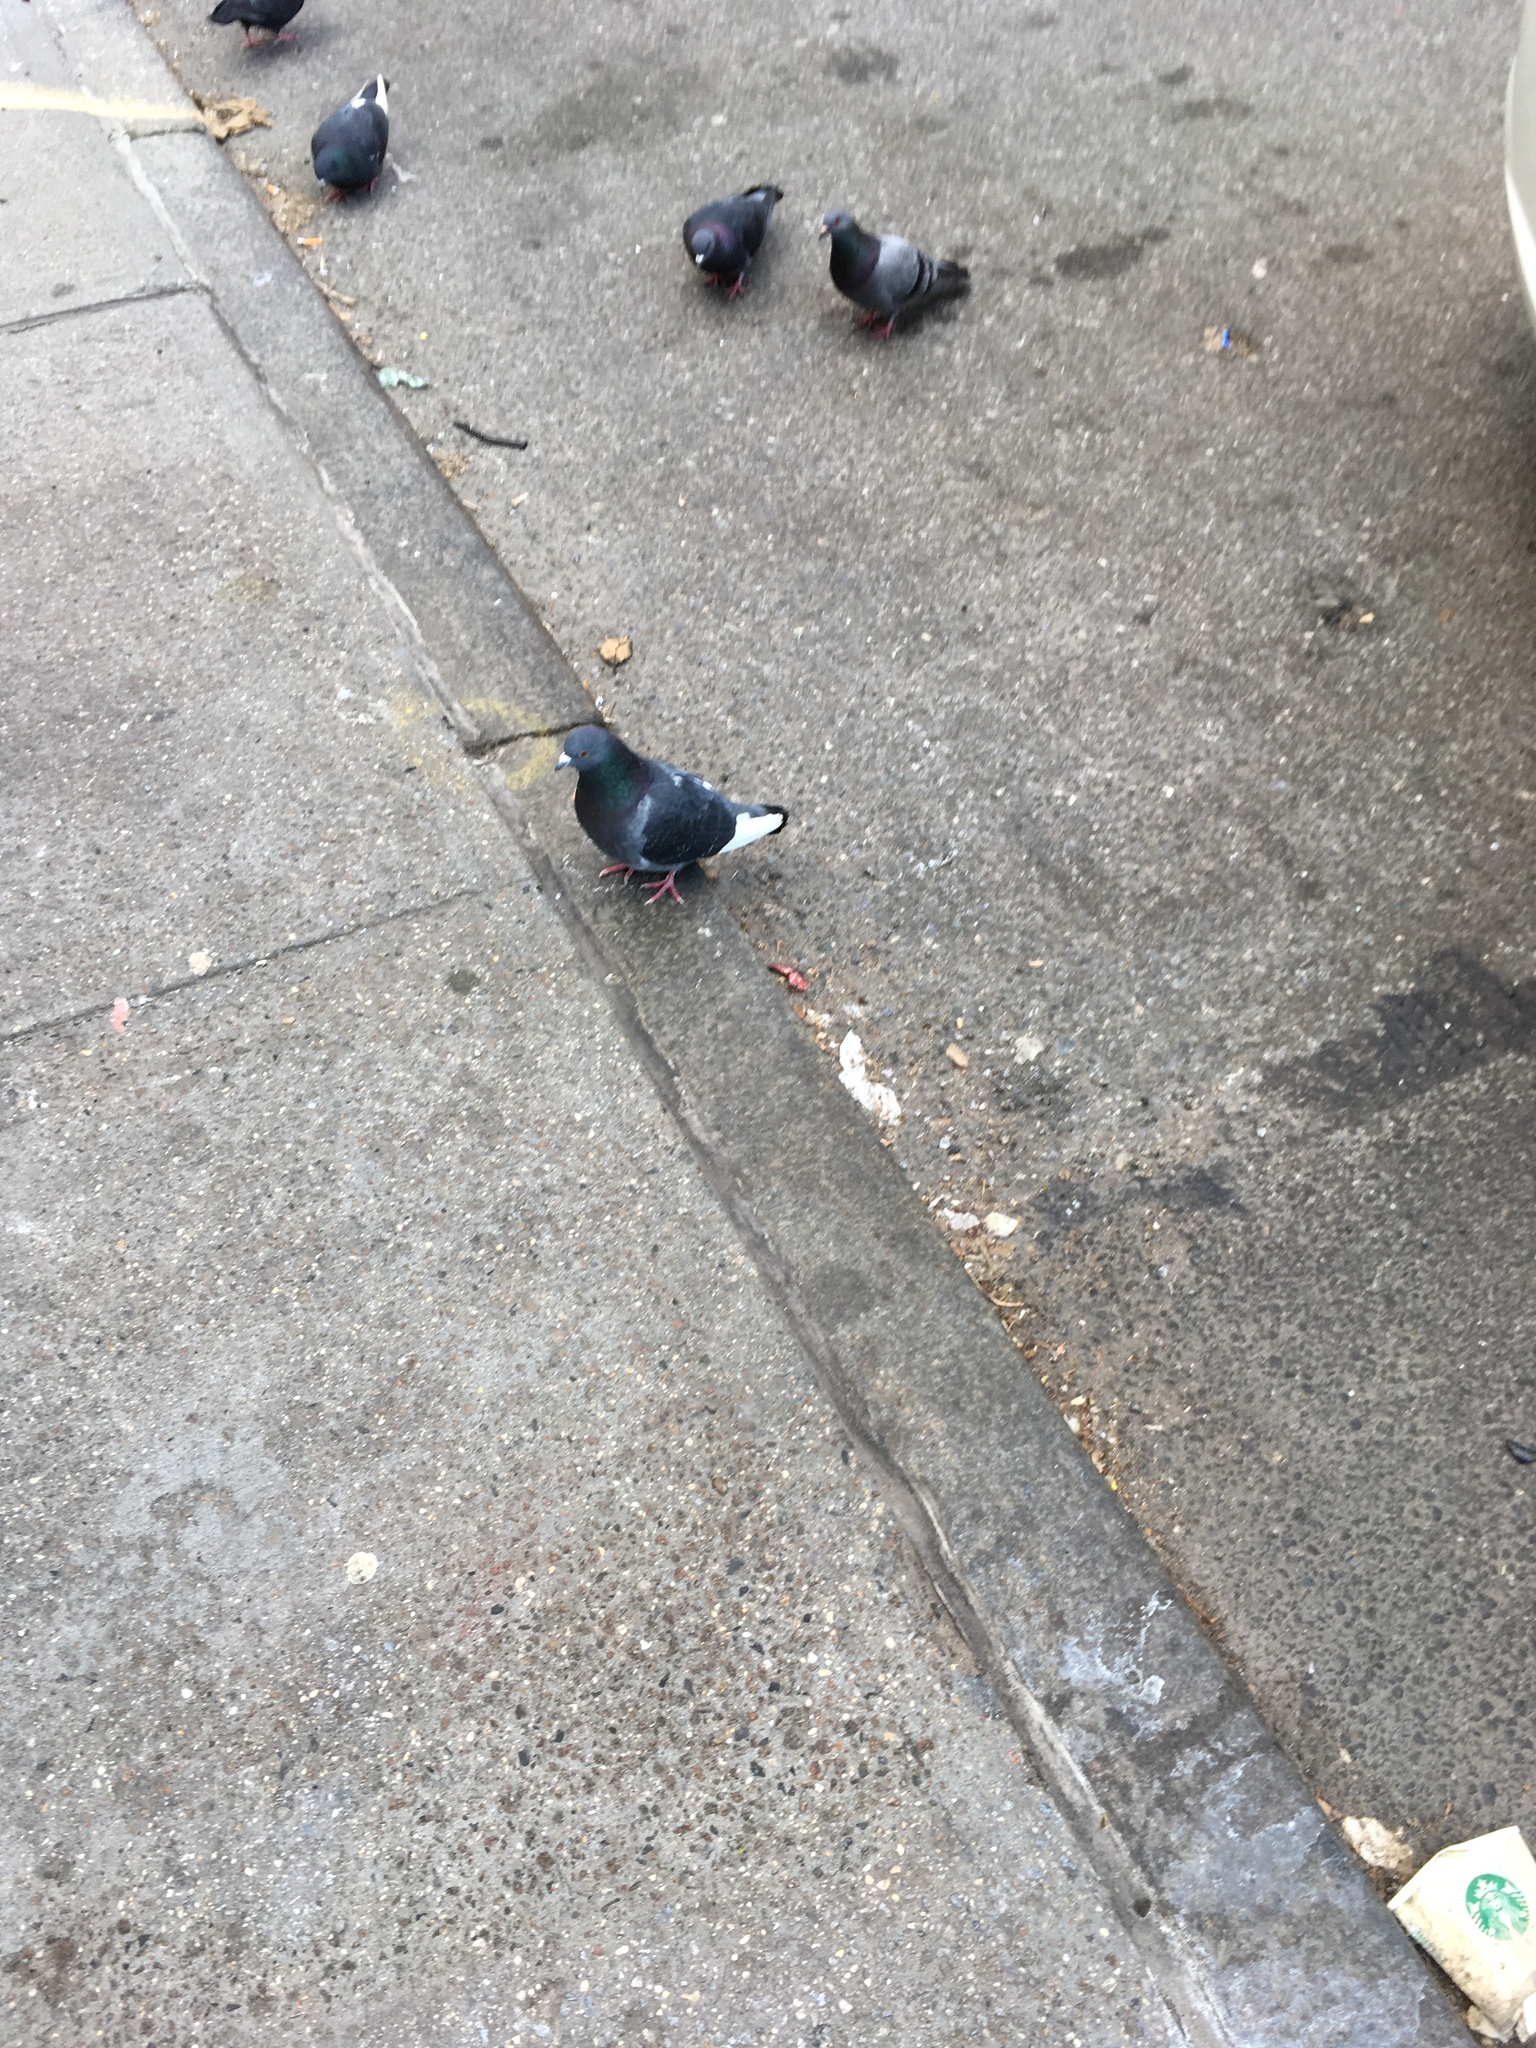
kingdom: Animalia
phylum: Chordata
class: Aves
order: Columbiformes
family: Columbidae
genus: Columba
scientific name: Columba livia
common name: Rock pigeon
